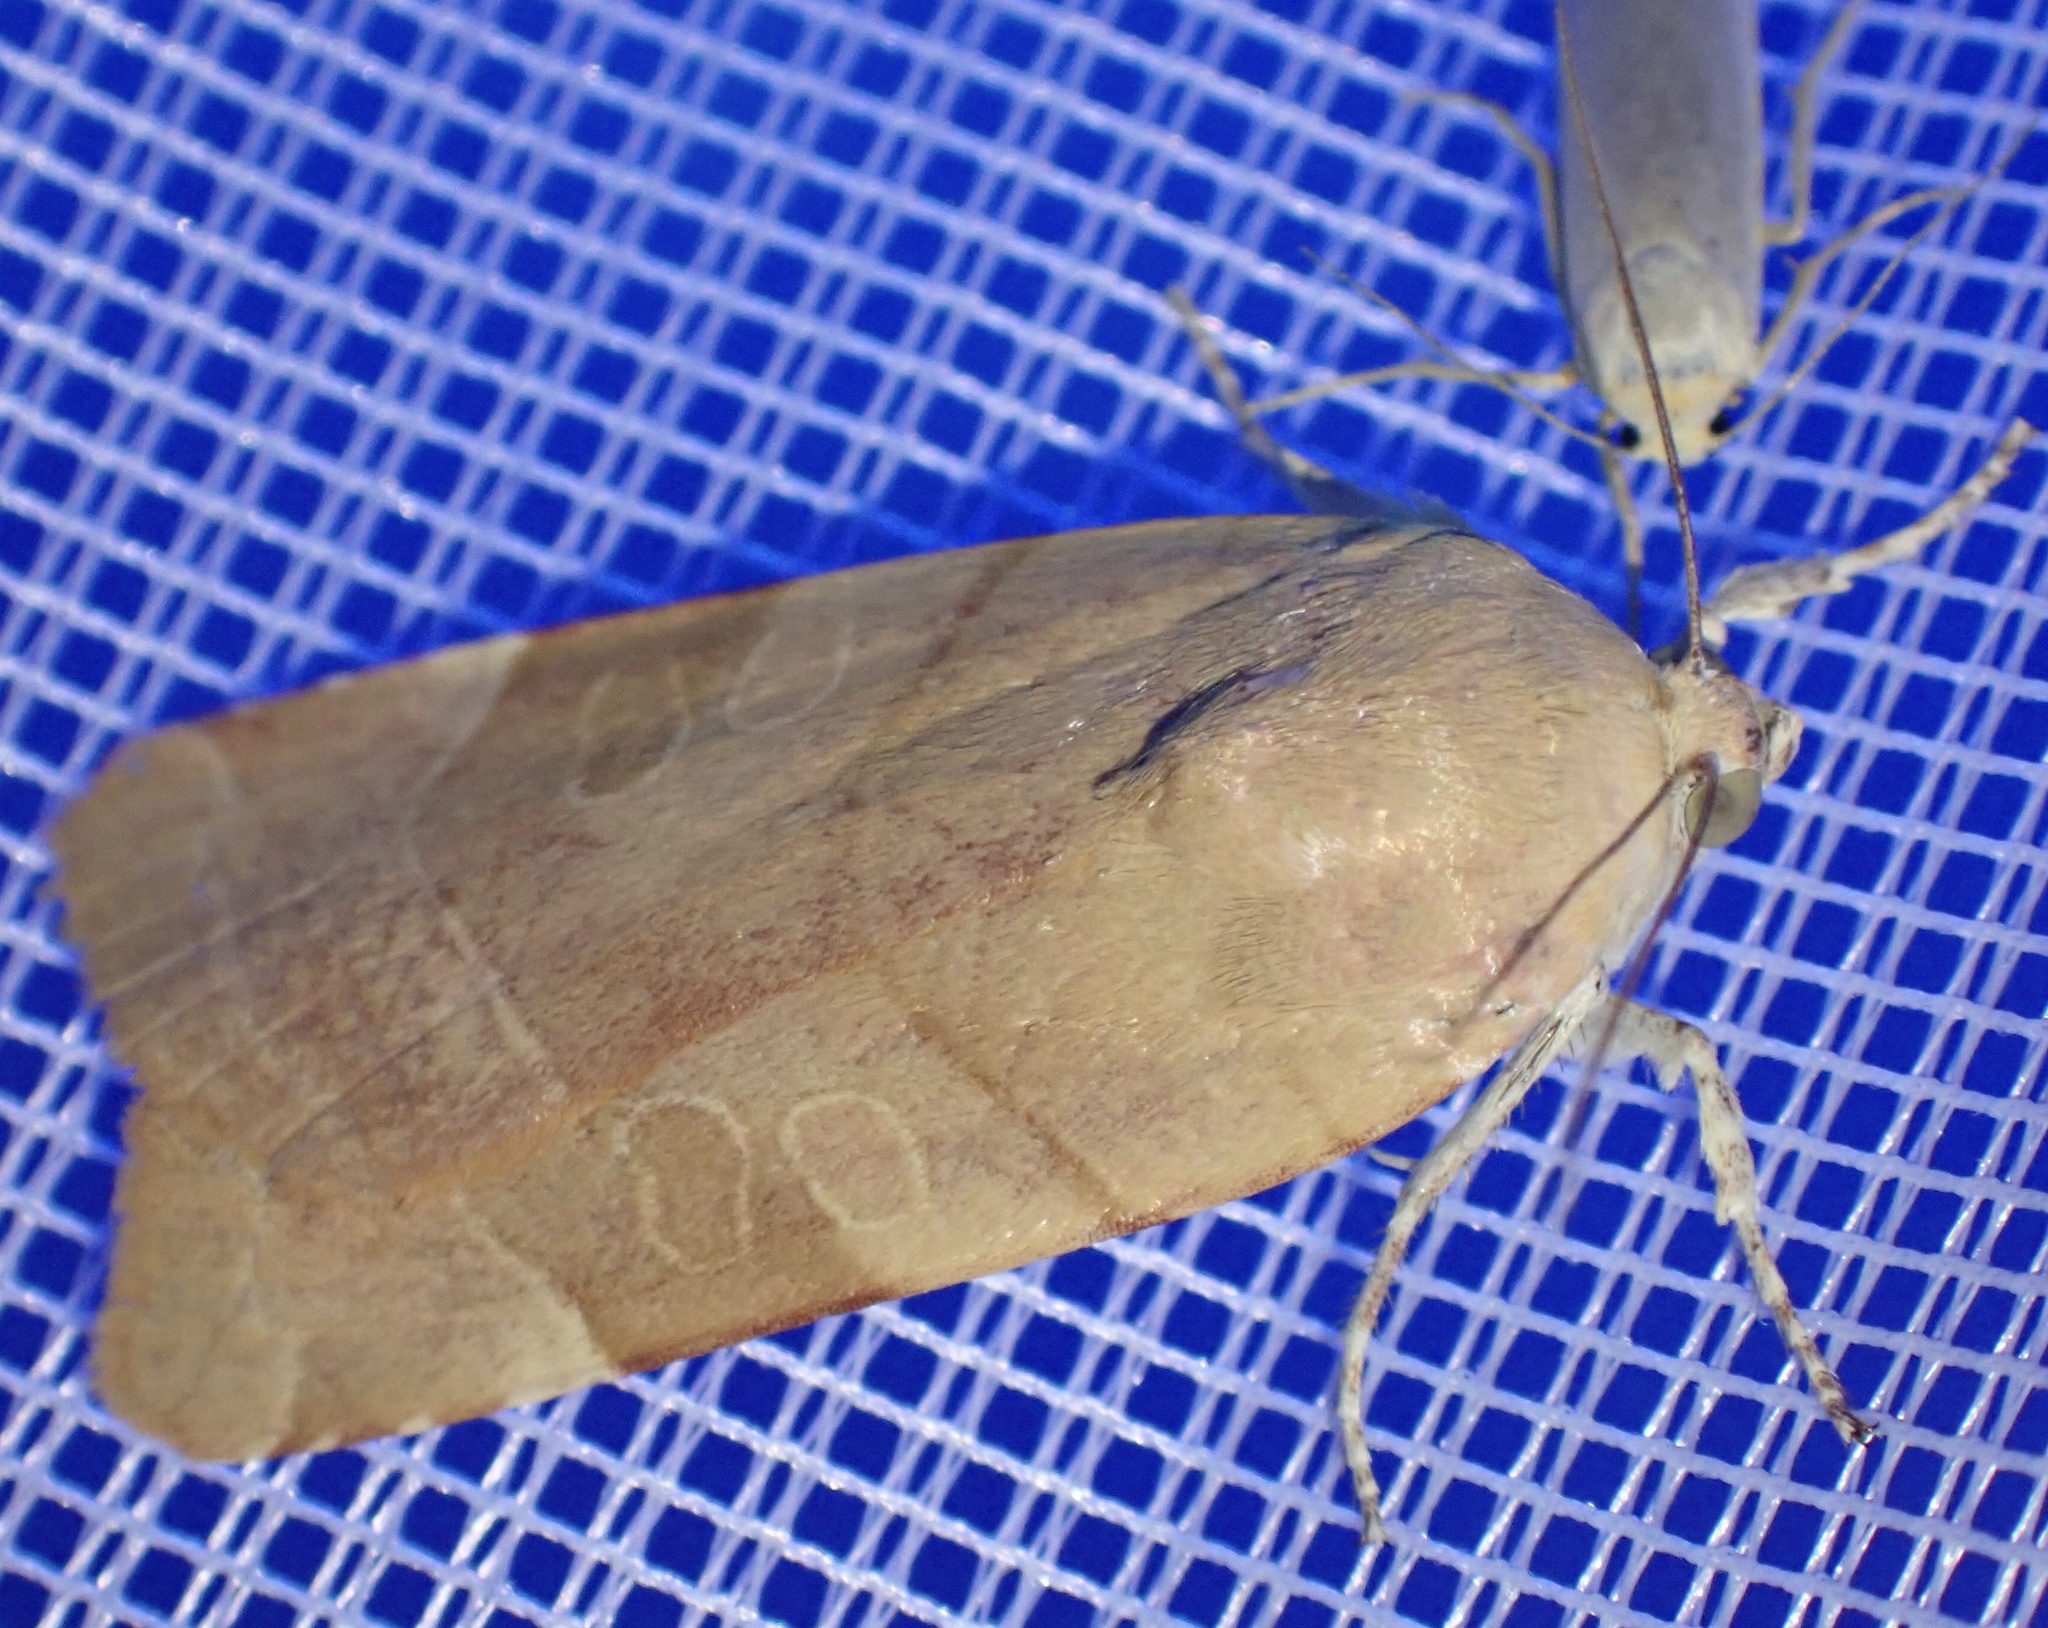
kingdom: Animalia
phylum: Arthropoda
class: Insecta
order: Lepidoptera
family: Noctuidae
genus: Noctua
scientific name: Noctua fimbriata
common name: Broad-bordered yellow underwing
